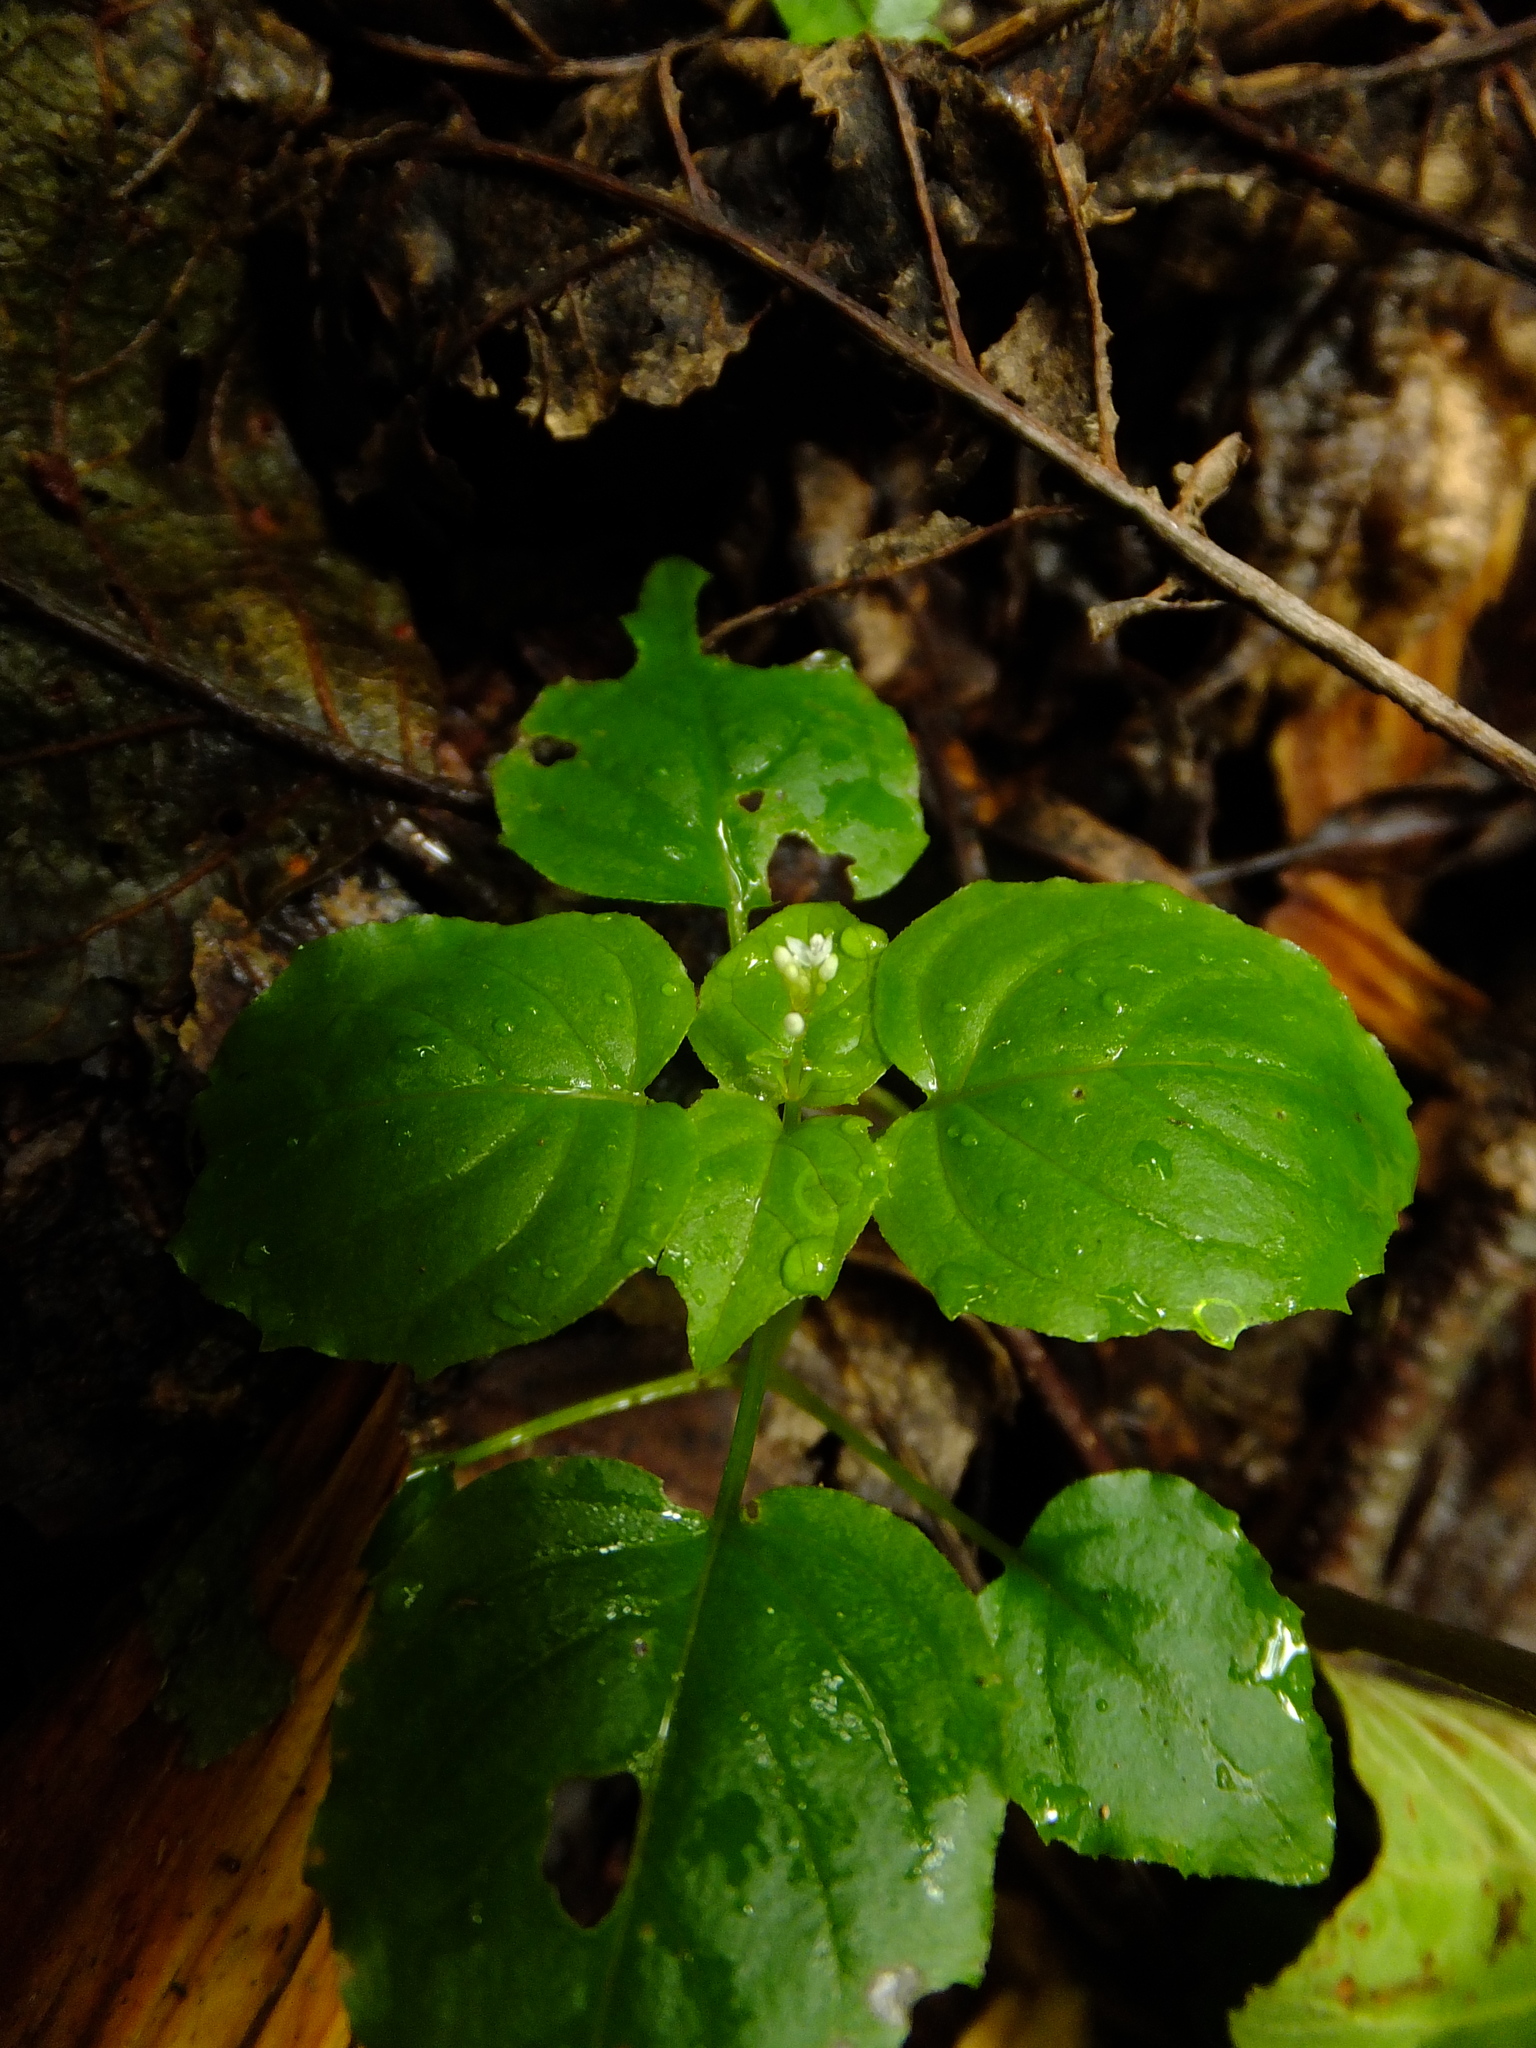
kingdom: Plantae
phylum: Tracheophyta
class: Magnoliopsida
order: Myrtales
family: Onagraceae
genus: Circaea
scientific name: Circaea alpina
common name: Alpine enchanter's-nightshade
